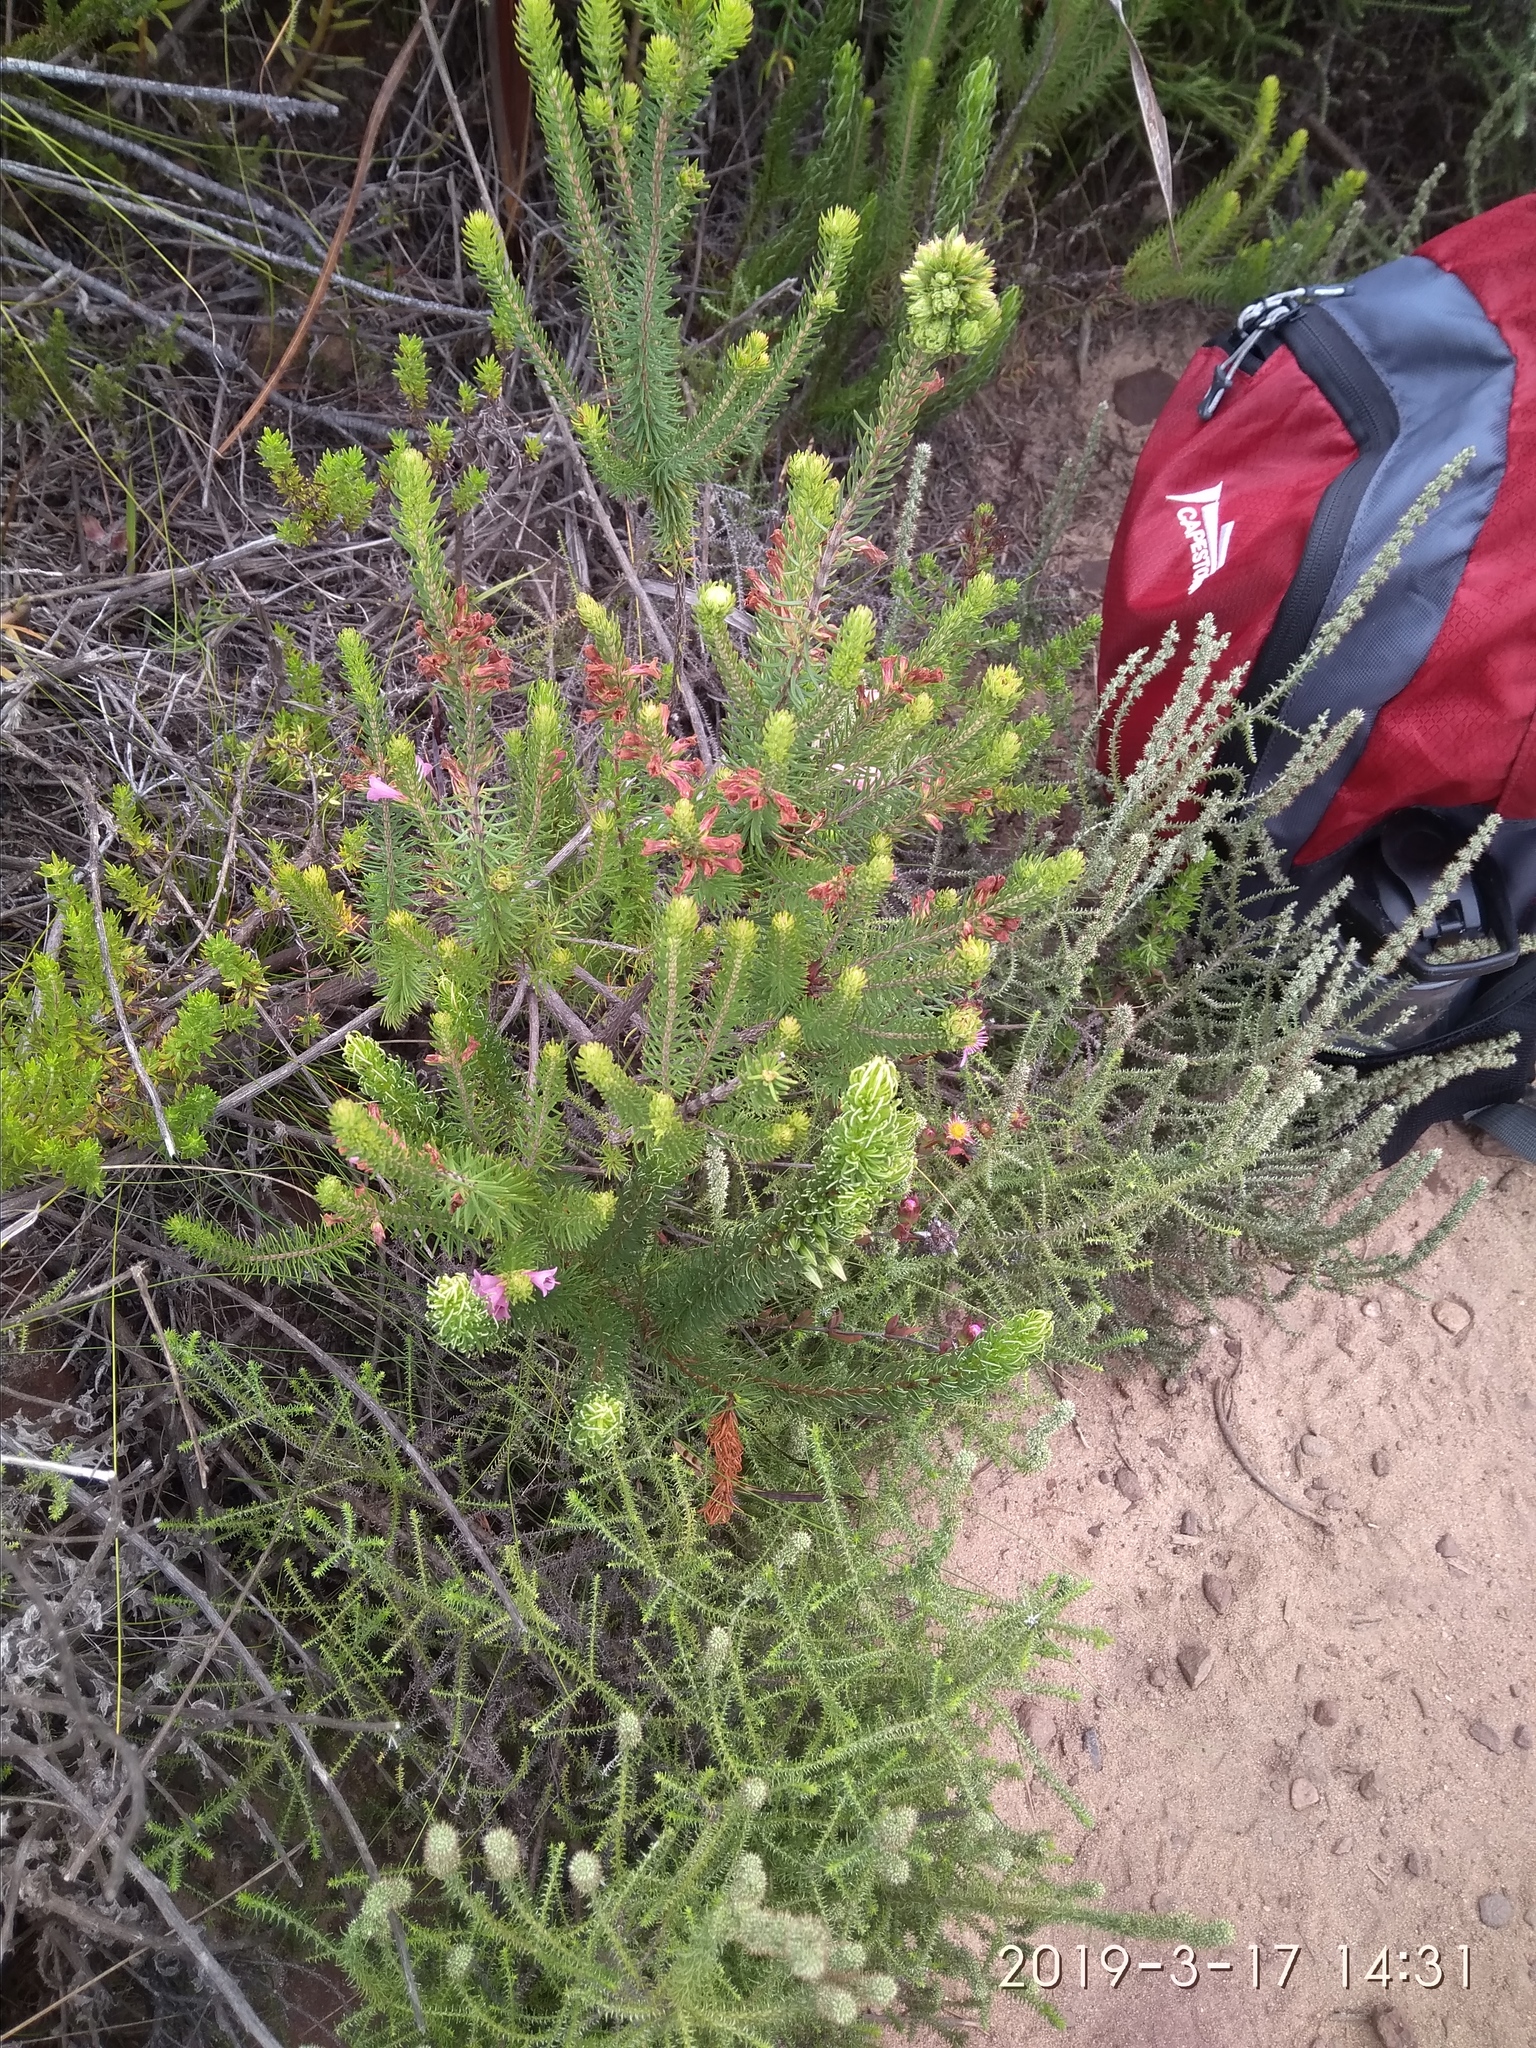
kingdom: Plantae
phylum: Tracheophyta
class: Magnoliopsida
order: Ericales
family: Ericaceae
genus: Erica
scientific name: Erica abietina
